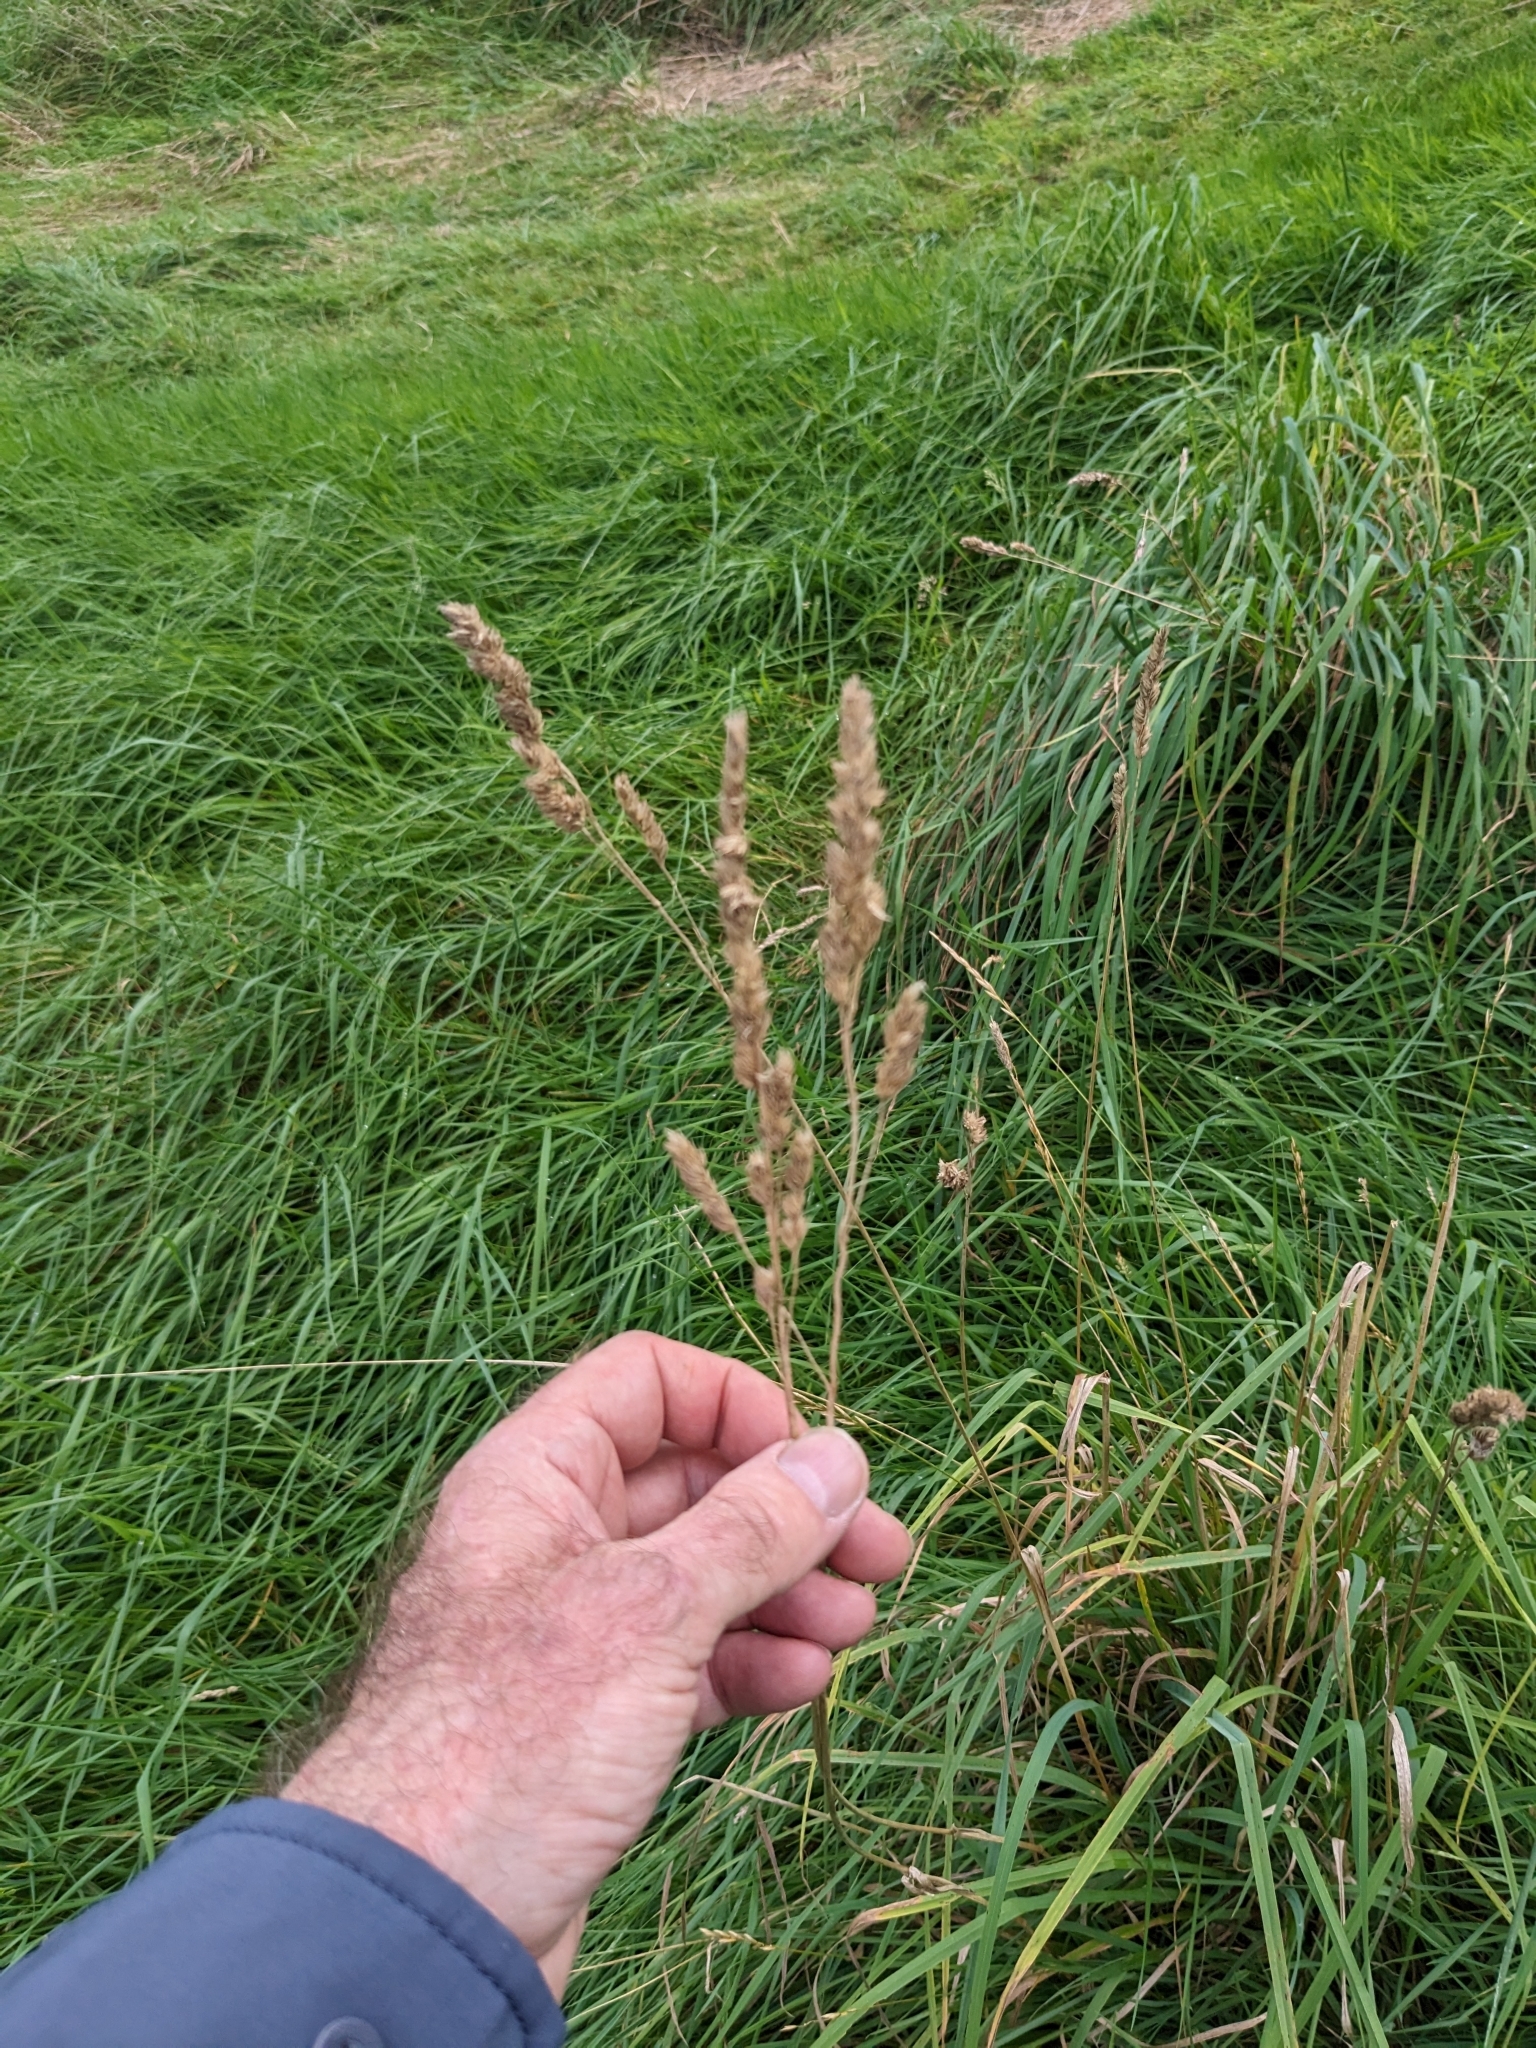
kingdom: Plantae
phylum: Tracheophyta
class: Liliopsida
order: Poales
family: Poaceae
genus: Dactylis
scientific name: Dactylis glomerata
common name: Orchardgrass
